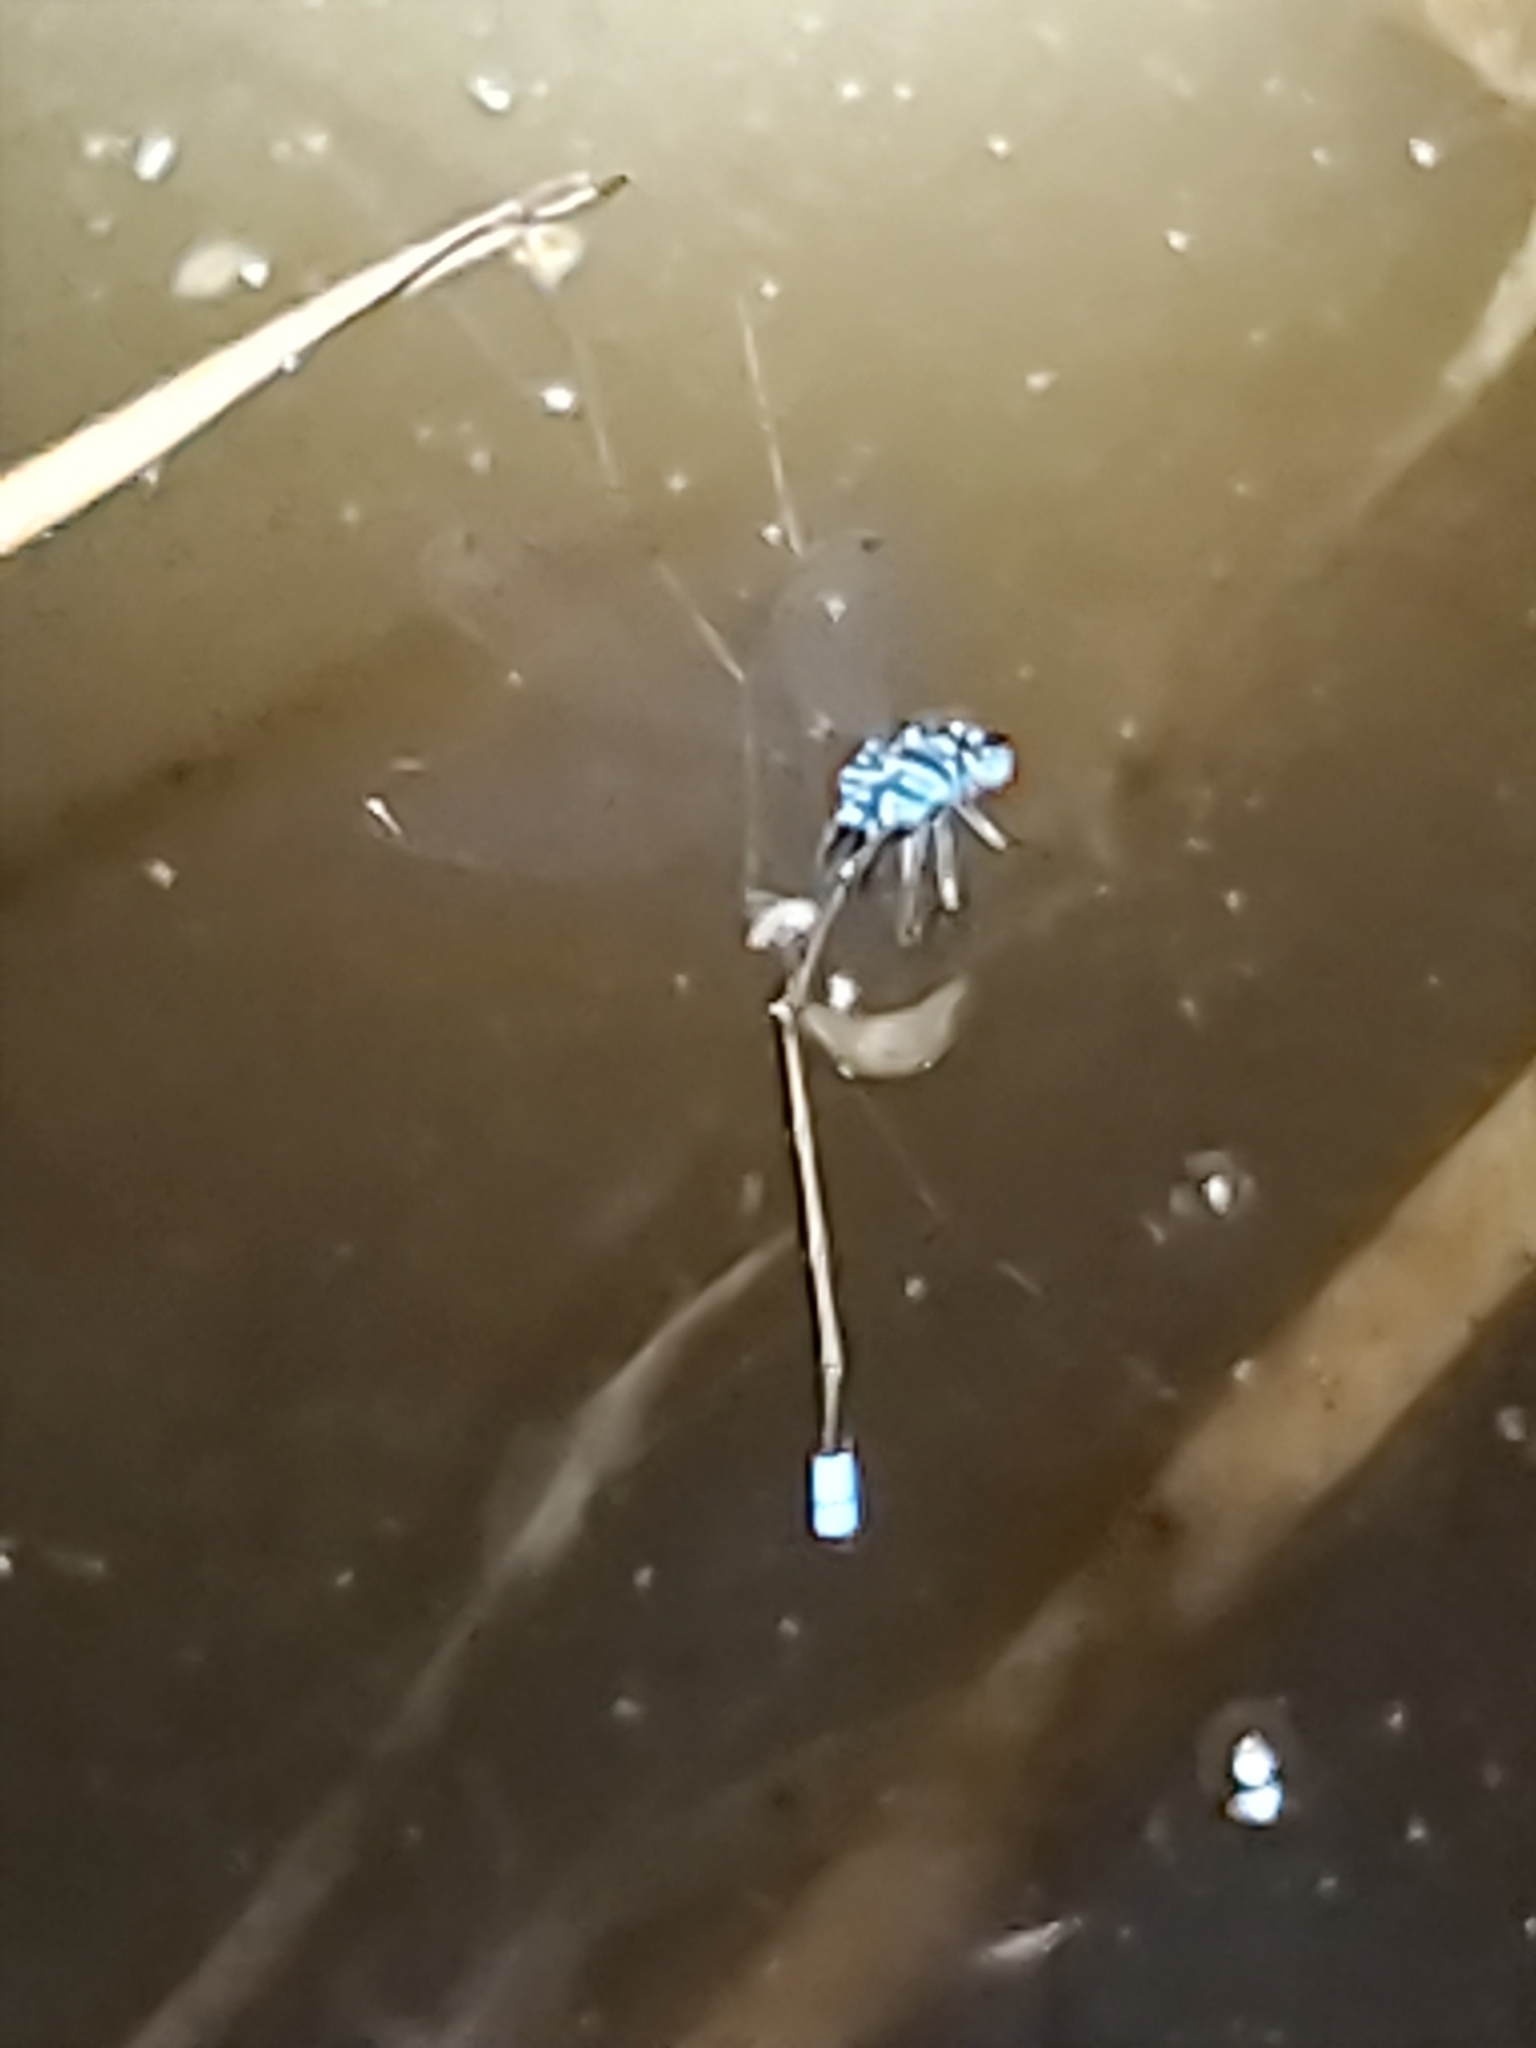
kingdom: Animalia
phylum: Arthropoda
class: Insecta
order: Odonata
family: Coenagrionidae
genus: Ischnura
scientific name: Ischnura heterosticta
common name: Common bluetail
